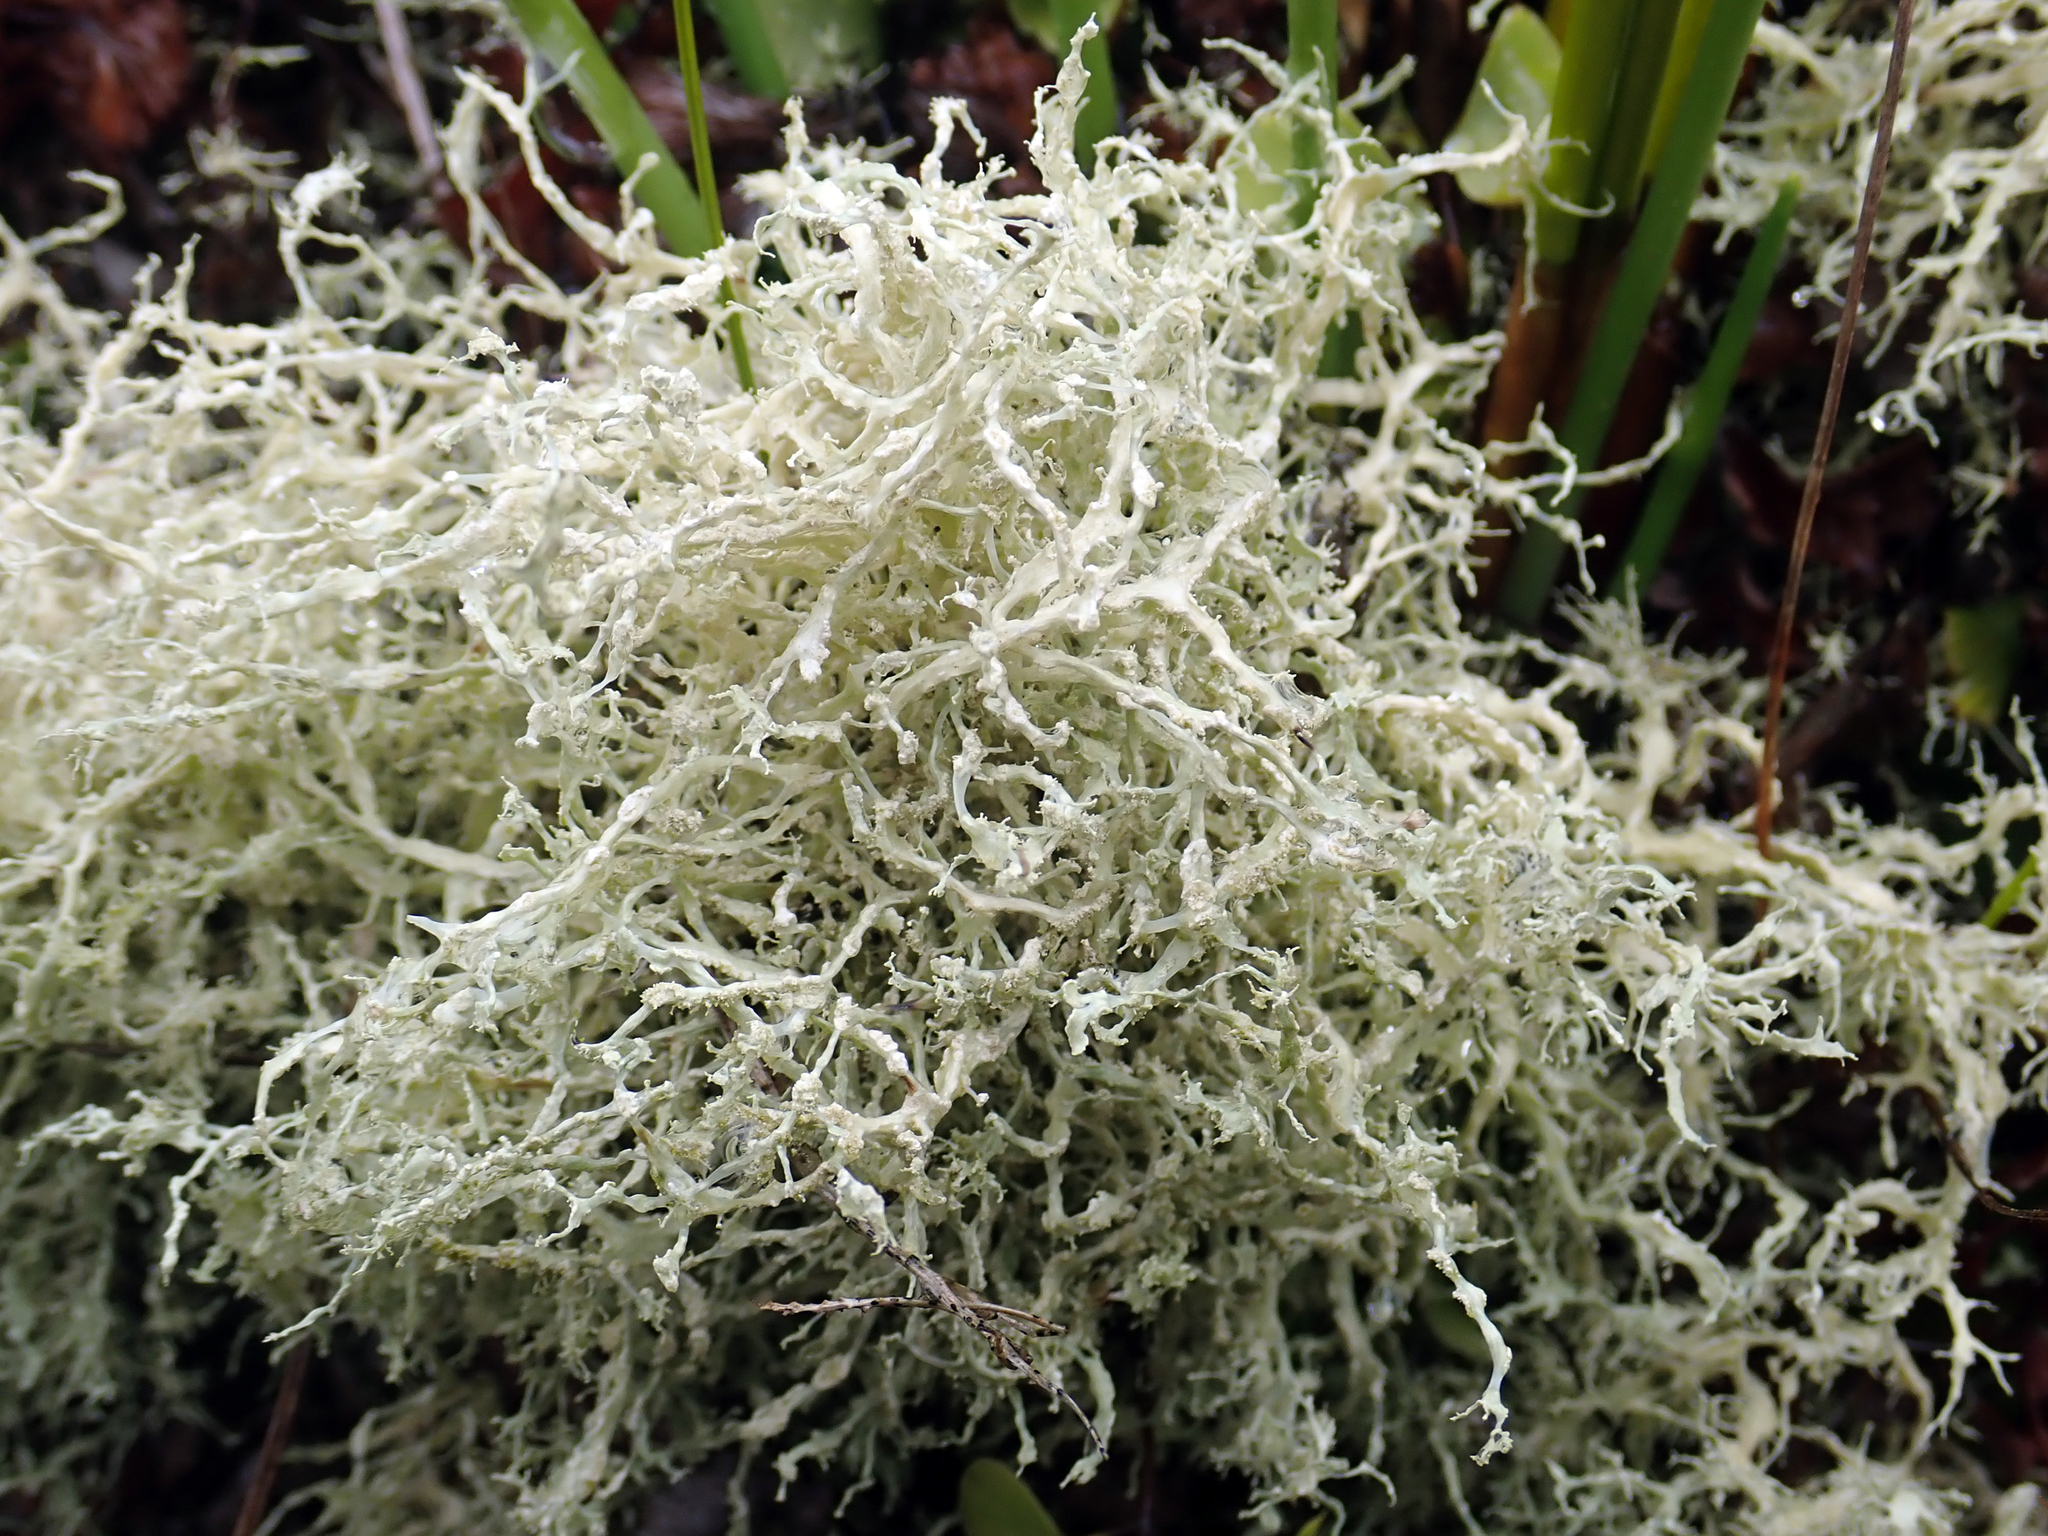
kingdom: Fungi
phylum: Ascomycota
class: Lecanoromycetes
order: Lecanorales
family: Ramalinaceae
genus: Ramalina
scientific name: Ramalina peruviana
